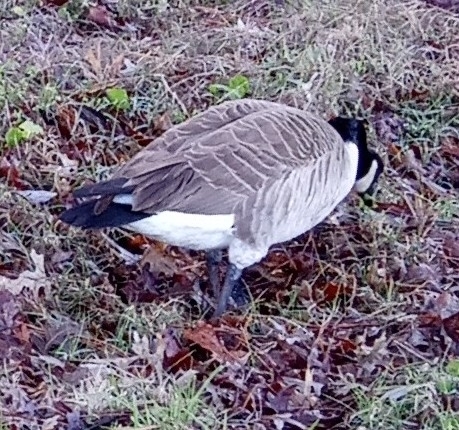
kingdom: Animalia
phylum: Chordata
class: Aves
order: Anseriformes
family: Anatidae
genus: Branta
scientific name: Branta canadensis
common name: Canada goose
